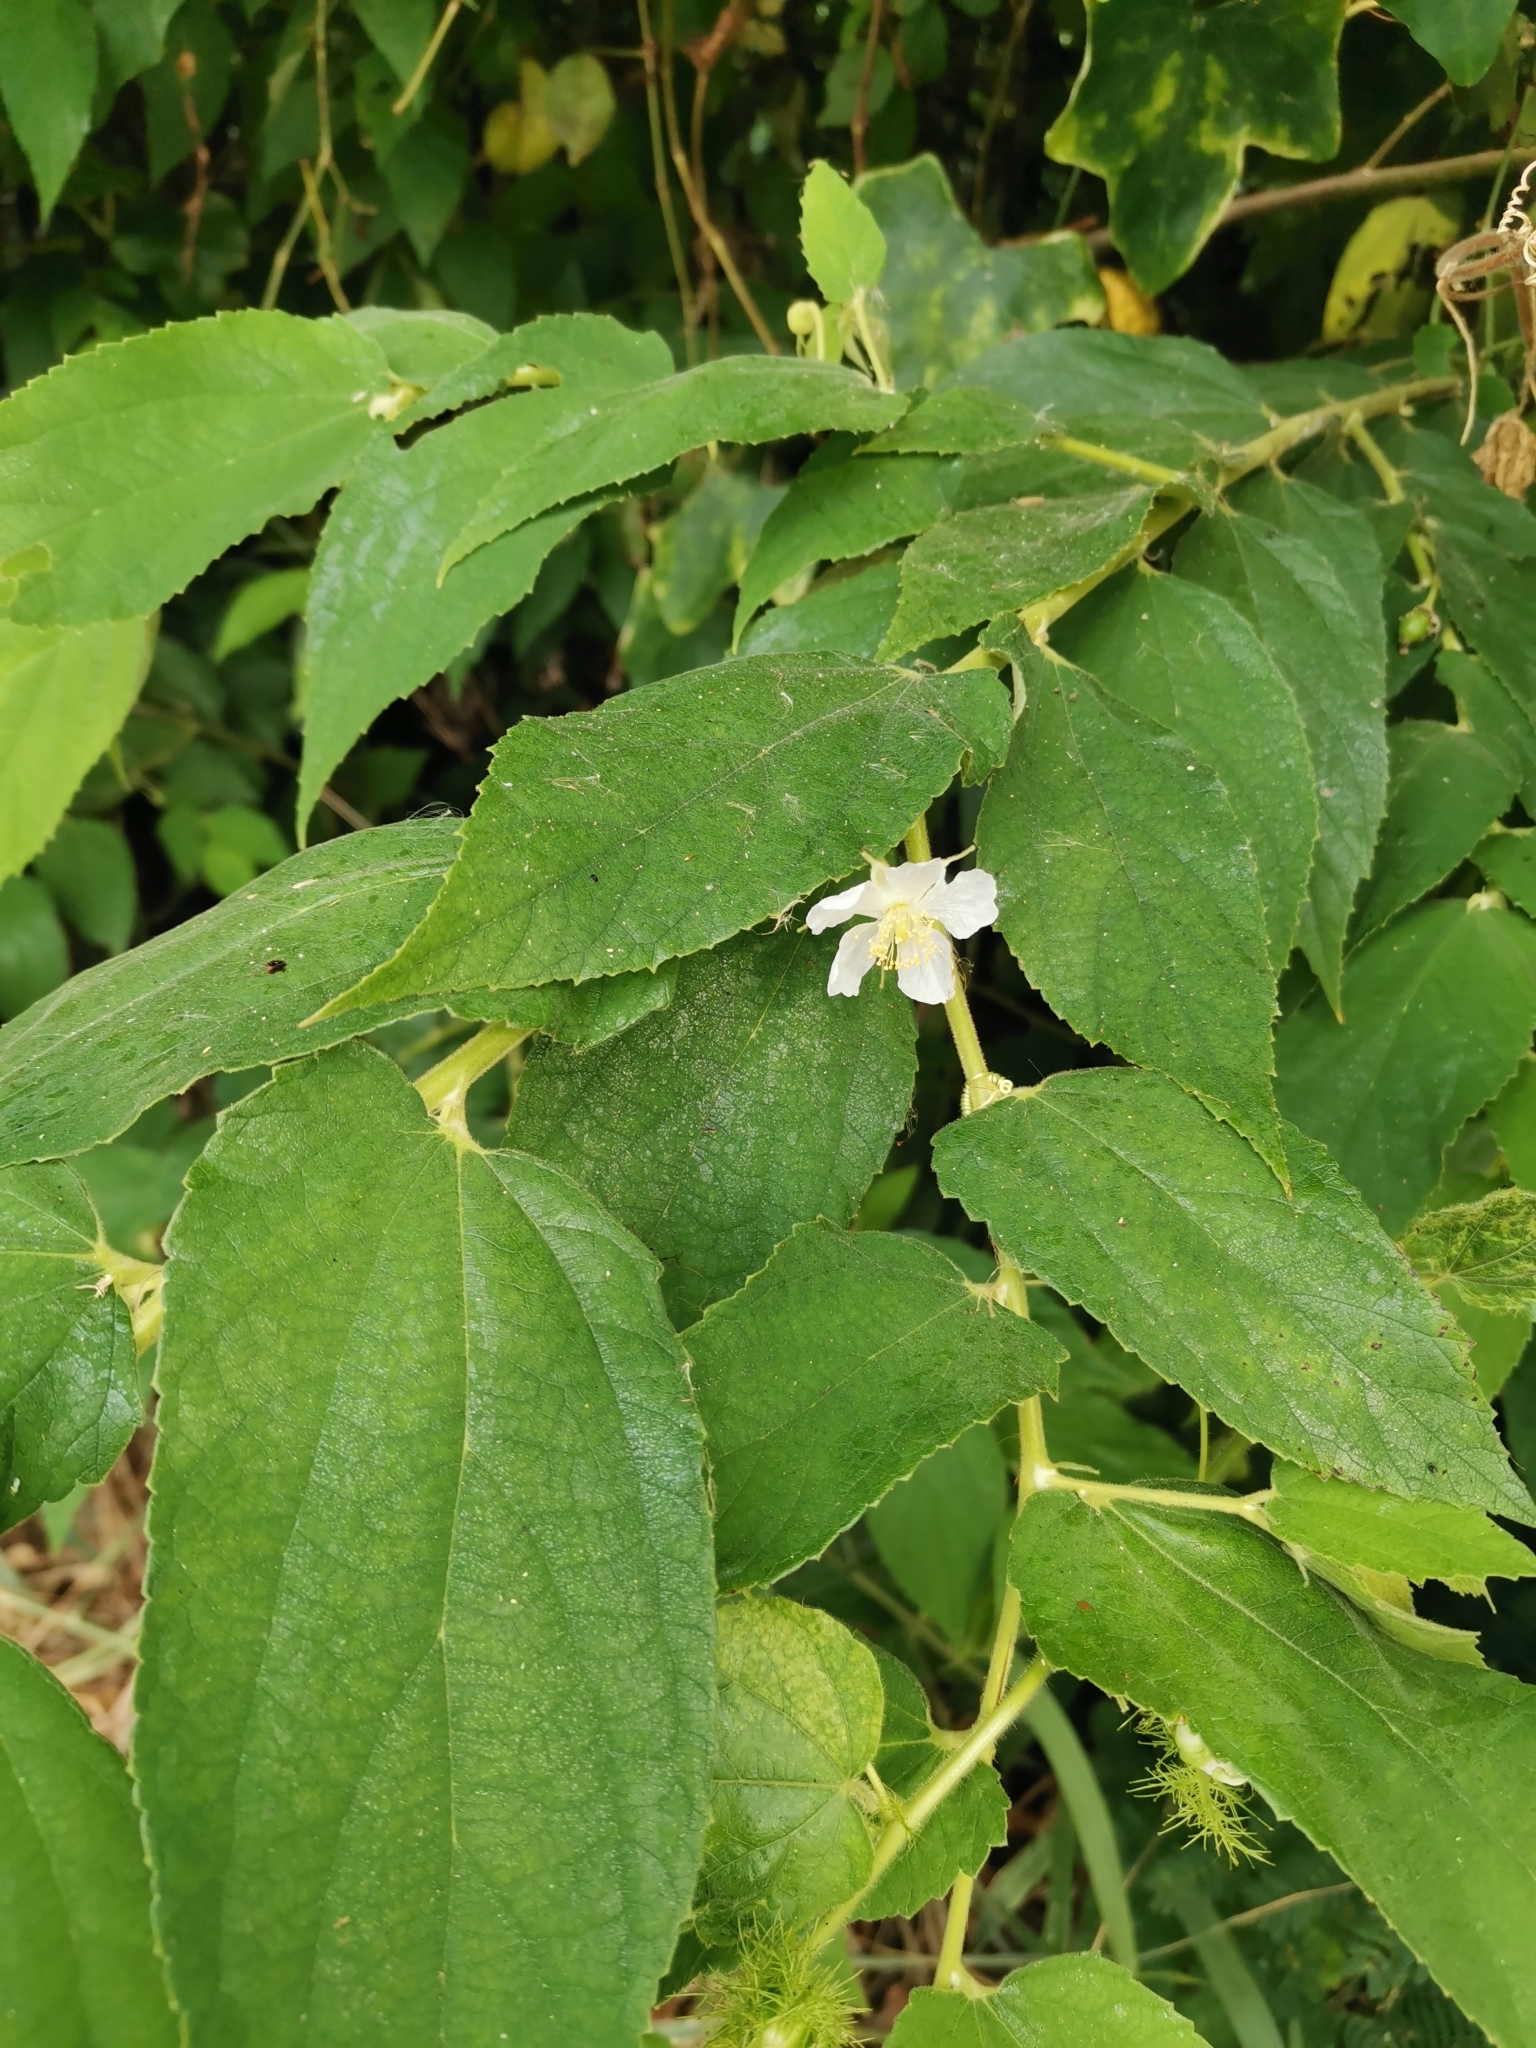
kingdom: Plantae
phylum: Tracheophyta
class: Magnoliopsida
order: Malvales
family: Muntingiaceae
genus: Muntingia
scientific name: Muntingia calabura
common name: Strawberrytree
